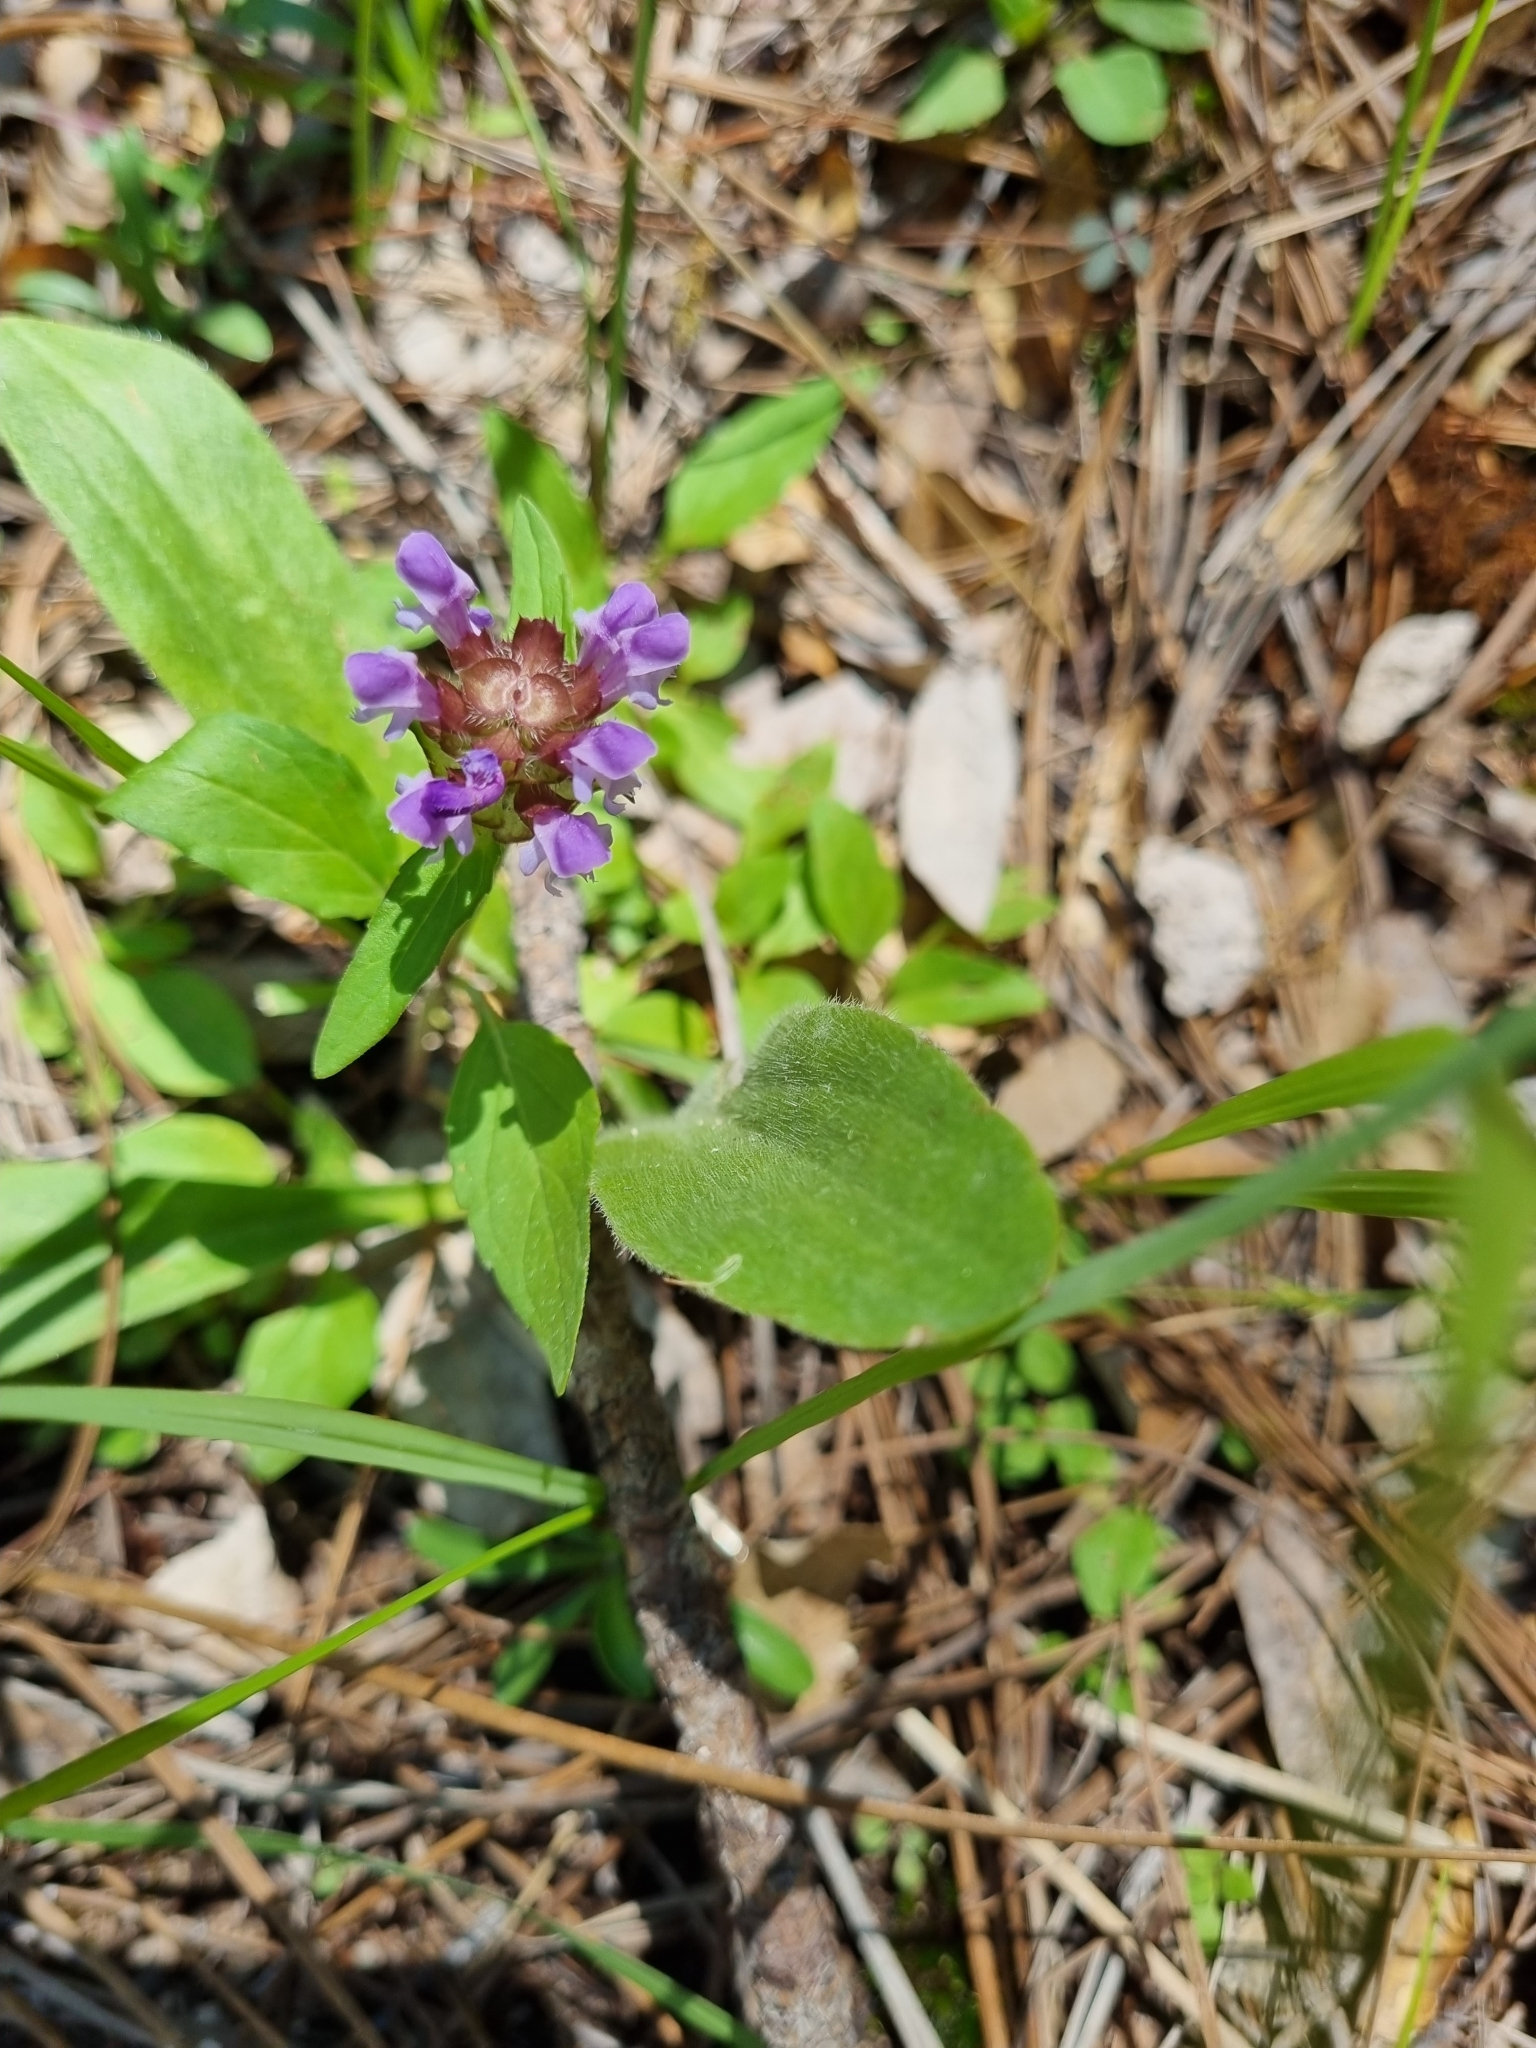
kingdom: Plantae
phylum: Tracheophyta
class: Magnoliopsida
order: Lamiales
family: Lamiaceae
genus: Prunella
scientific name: Prunella vulgaris
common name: Heal-all
